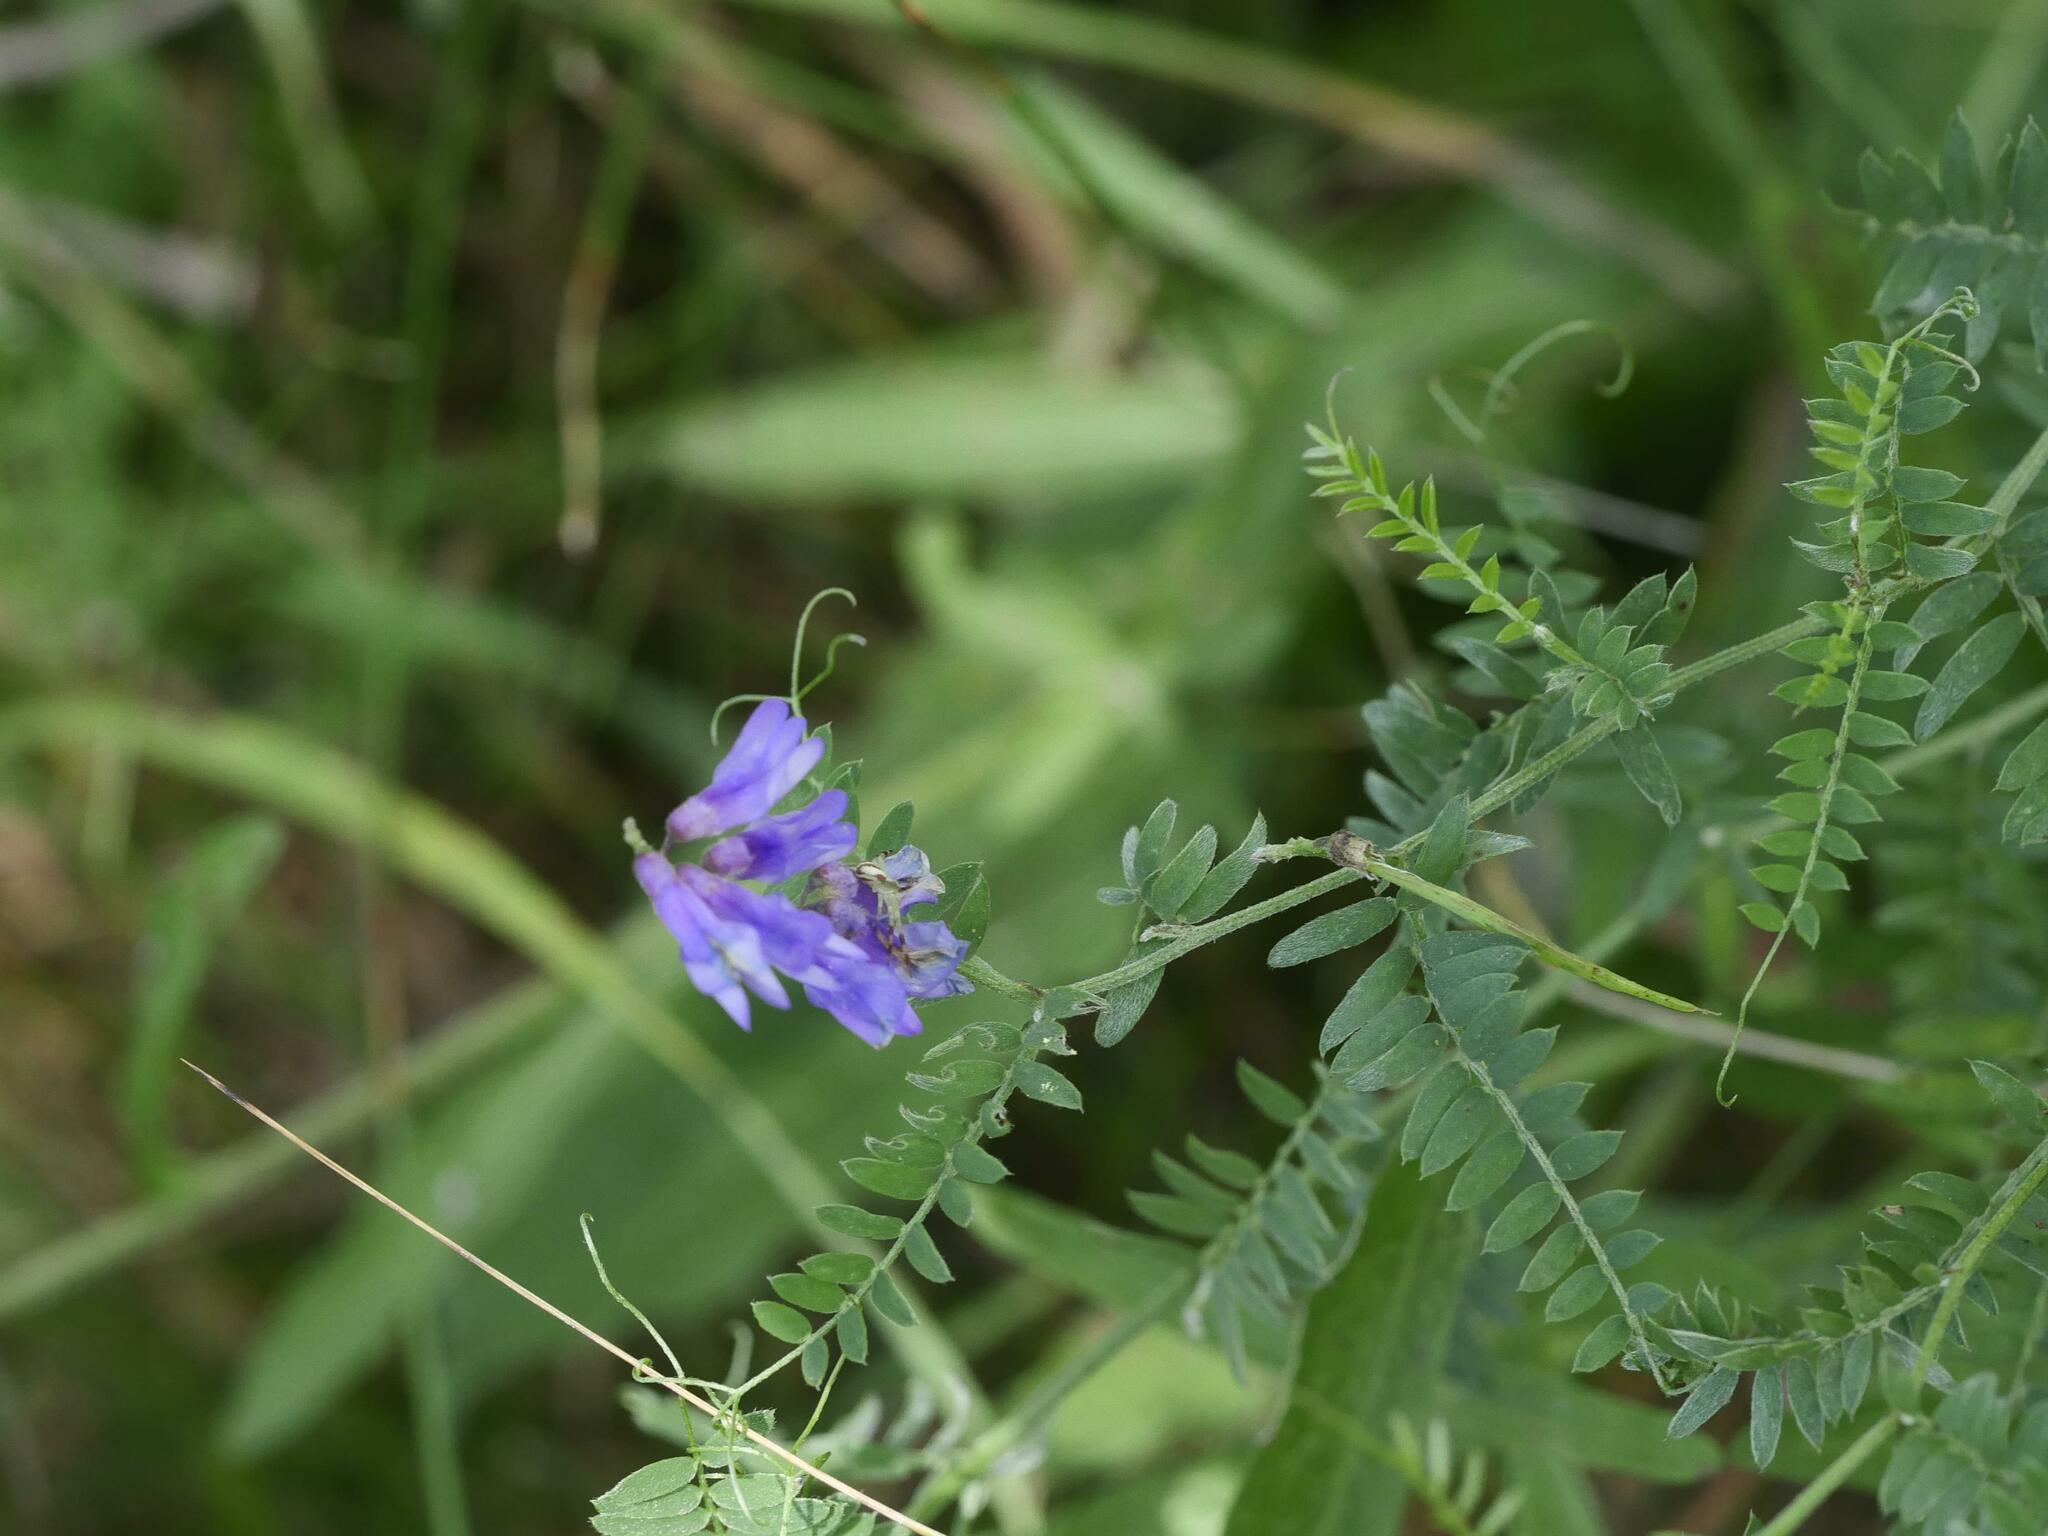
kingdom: Plantae
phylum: Tracheophyta
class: Magnoliopsida
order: Fabales
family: Fabaceae
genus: Vicia
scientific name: Vicia cracca
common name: Bird vetch
